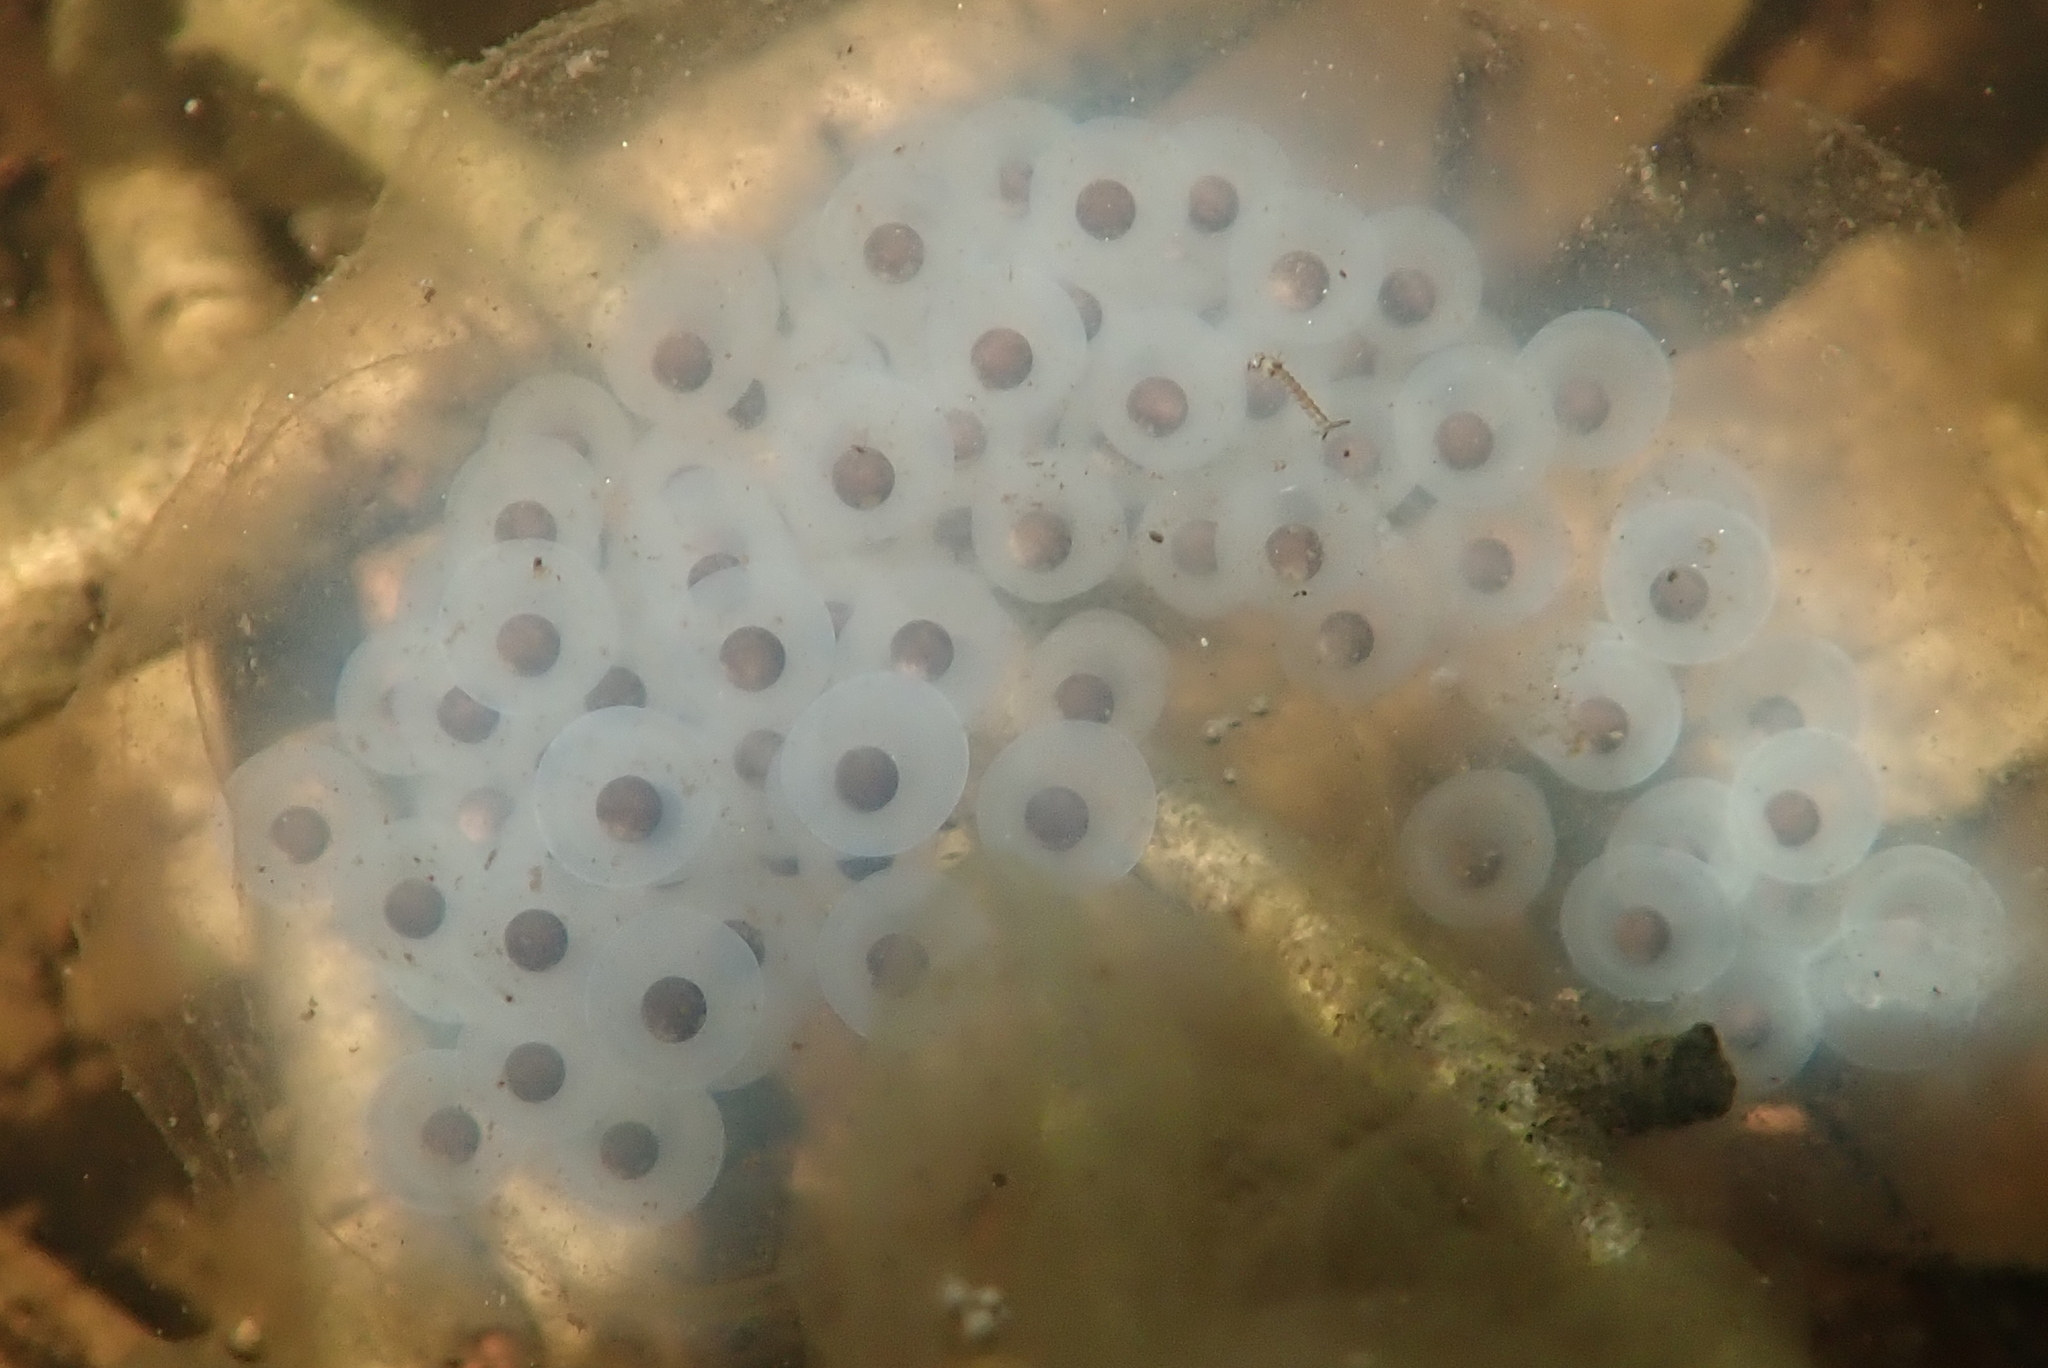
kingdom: Animalia
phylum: Chordata
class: Amphibia
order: Caudata
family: Ambystomatidae
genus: Ambystoma
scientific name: Ambystoma maculatum
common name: Spotted salamander
